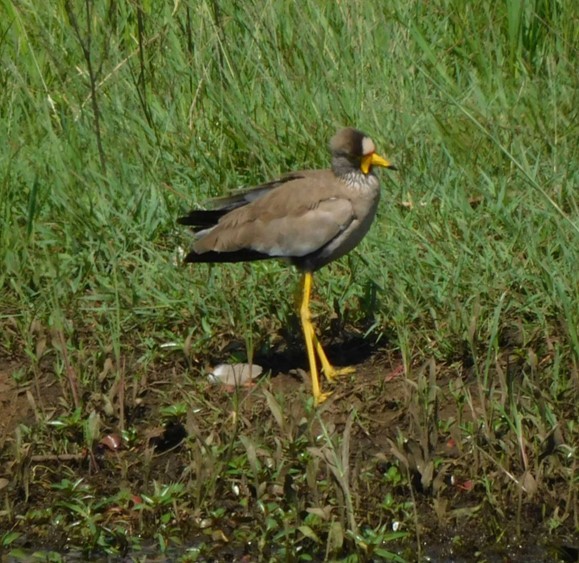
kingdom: Animalia
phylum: Chordata
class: Aves
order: Charadriiformes
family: Charadriidae
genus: Vanellus
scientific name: Vanellus senegallus
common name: African wattled lapwing
